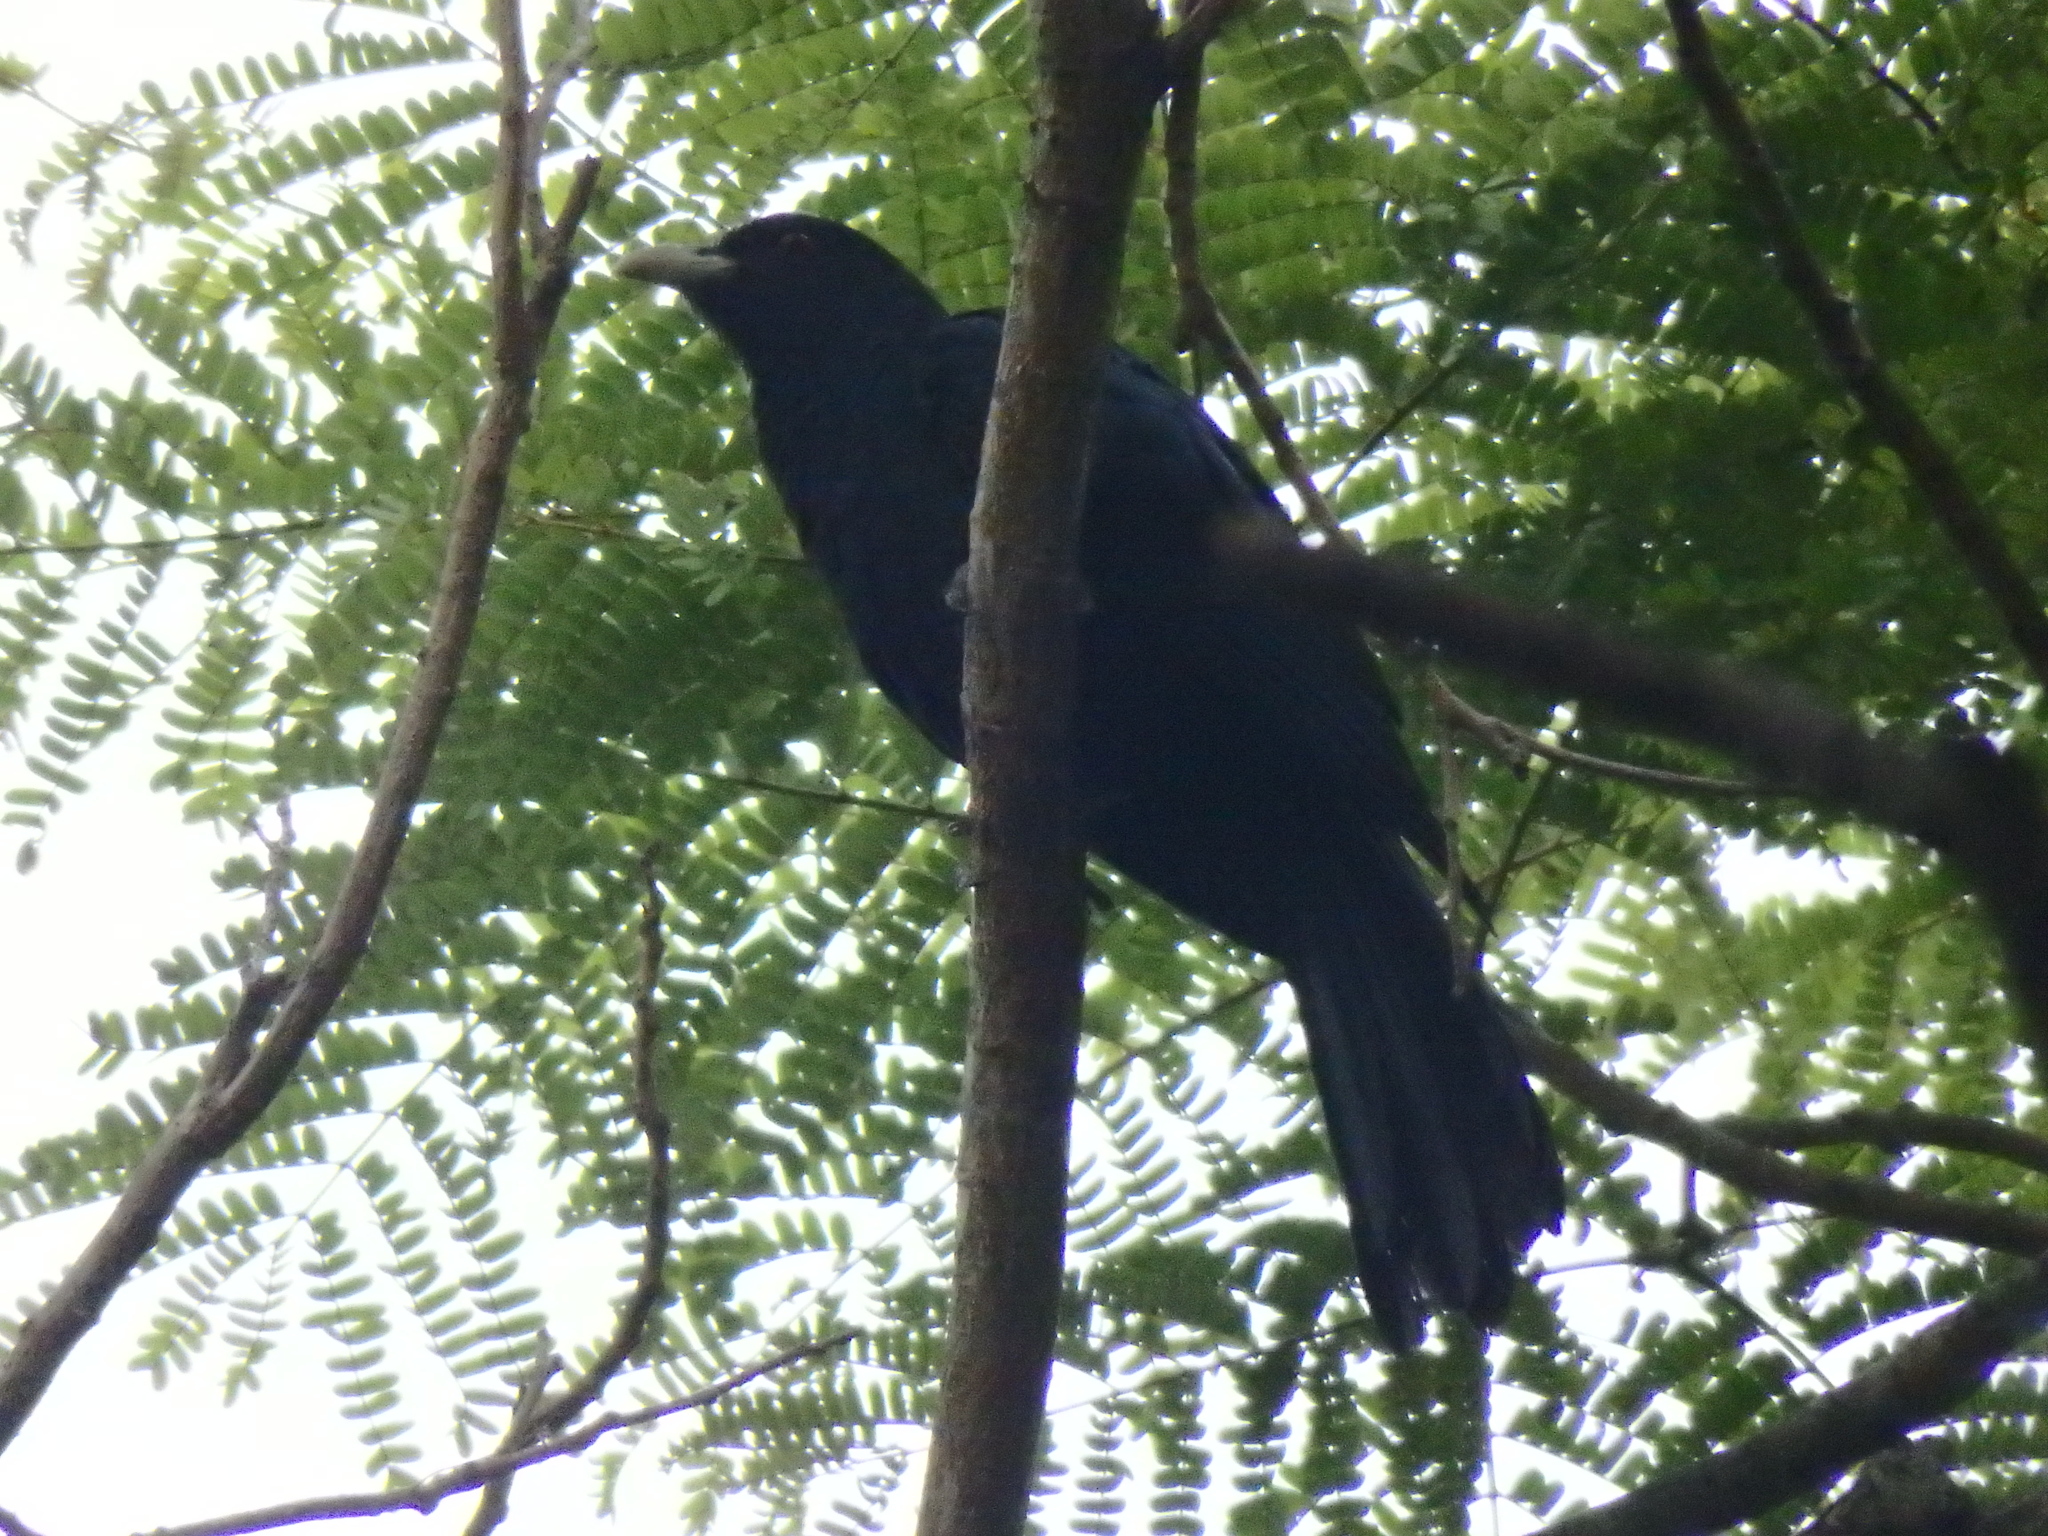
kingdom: Animalia
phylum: Chordata
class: Aves
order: Cuculiformes
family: Cuculidae
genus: Eudynamys
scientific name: Eudynamys scolopaceus
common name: Asian koel
